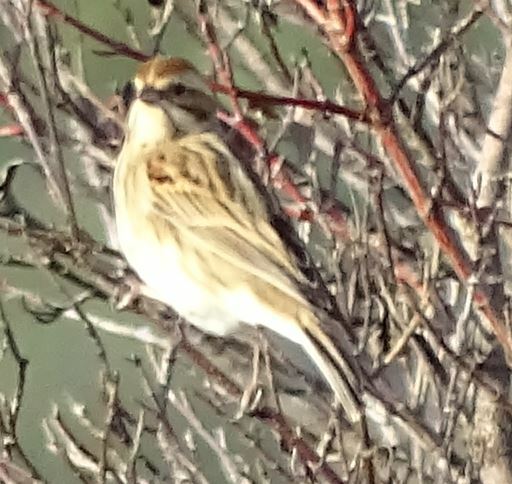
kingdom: Animalia
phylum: Chordata
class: Aves
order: Passeriformes
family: Emberizidae
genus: Emberiza
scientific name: Emberiza schoeniclus
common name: Reed bunting
